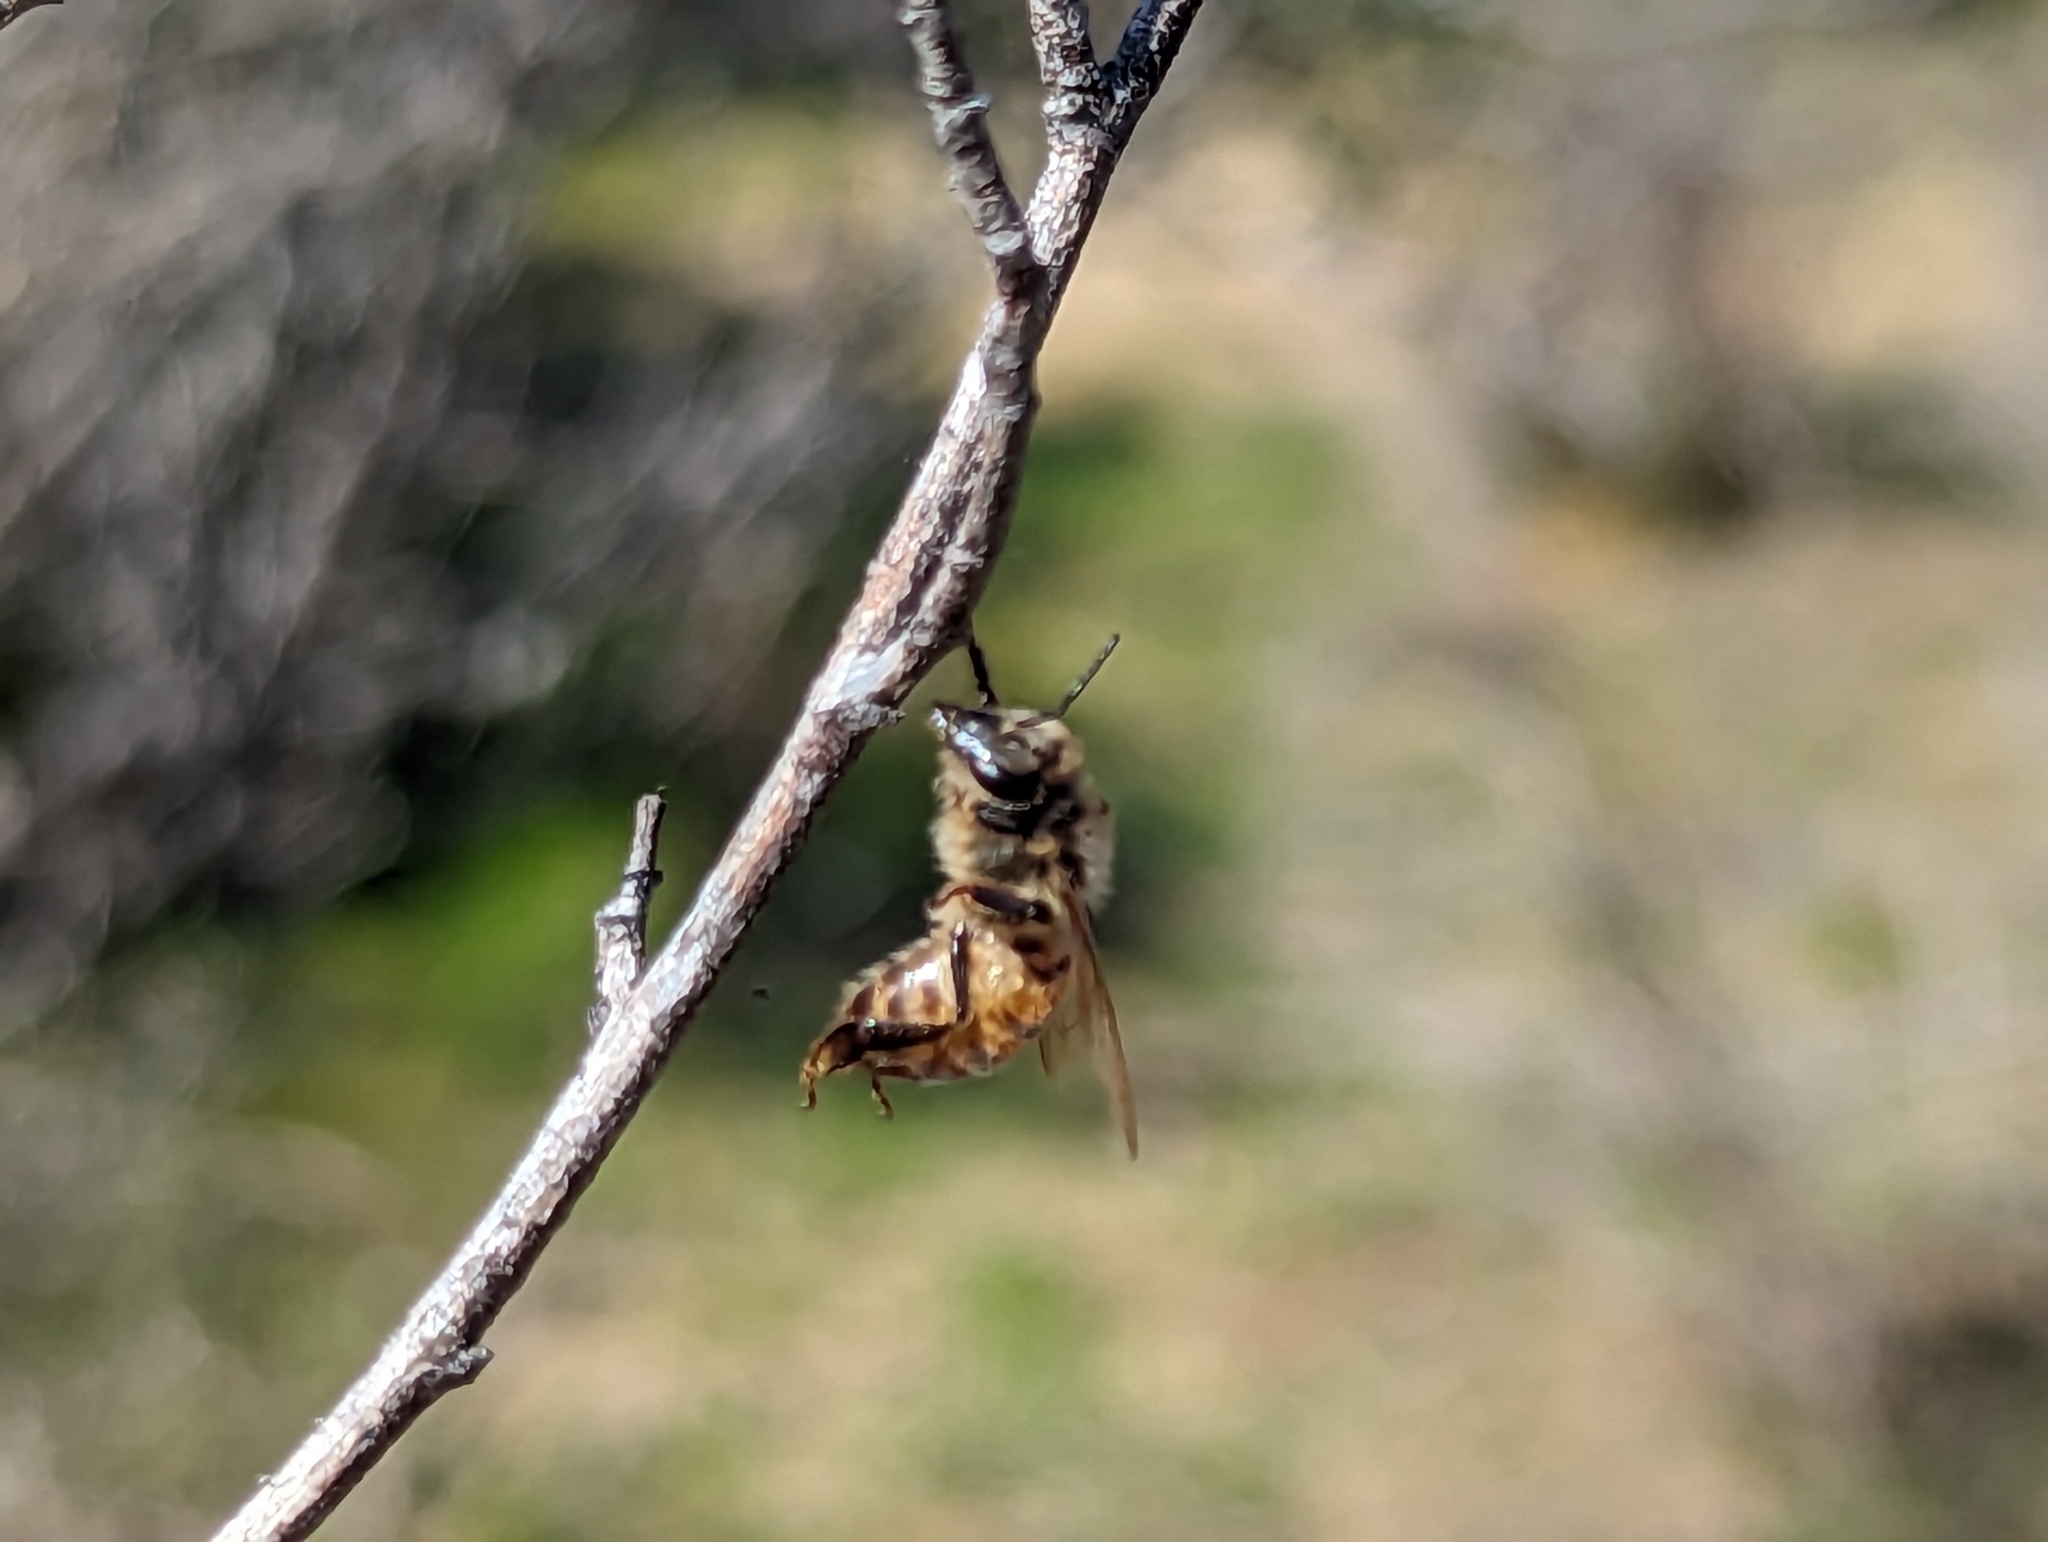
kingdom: Animalia
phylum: Arthropoda
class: Insecta
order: Hymenoptera
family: Apidae
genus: Apis
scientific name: Apis mellifera
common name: Honey bee
